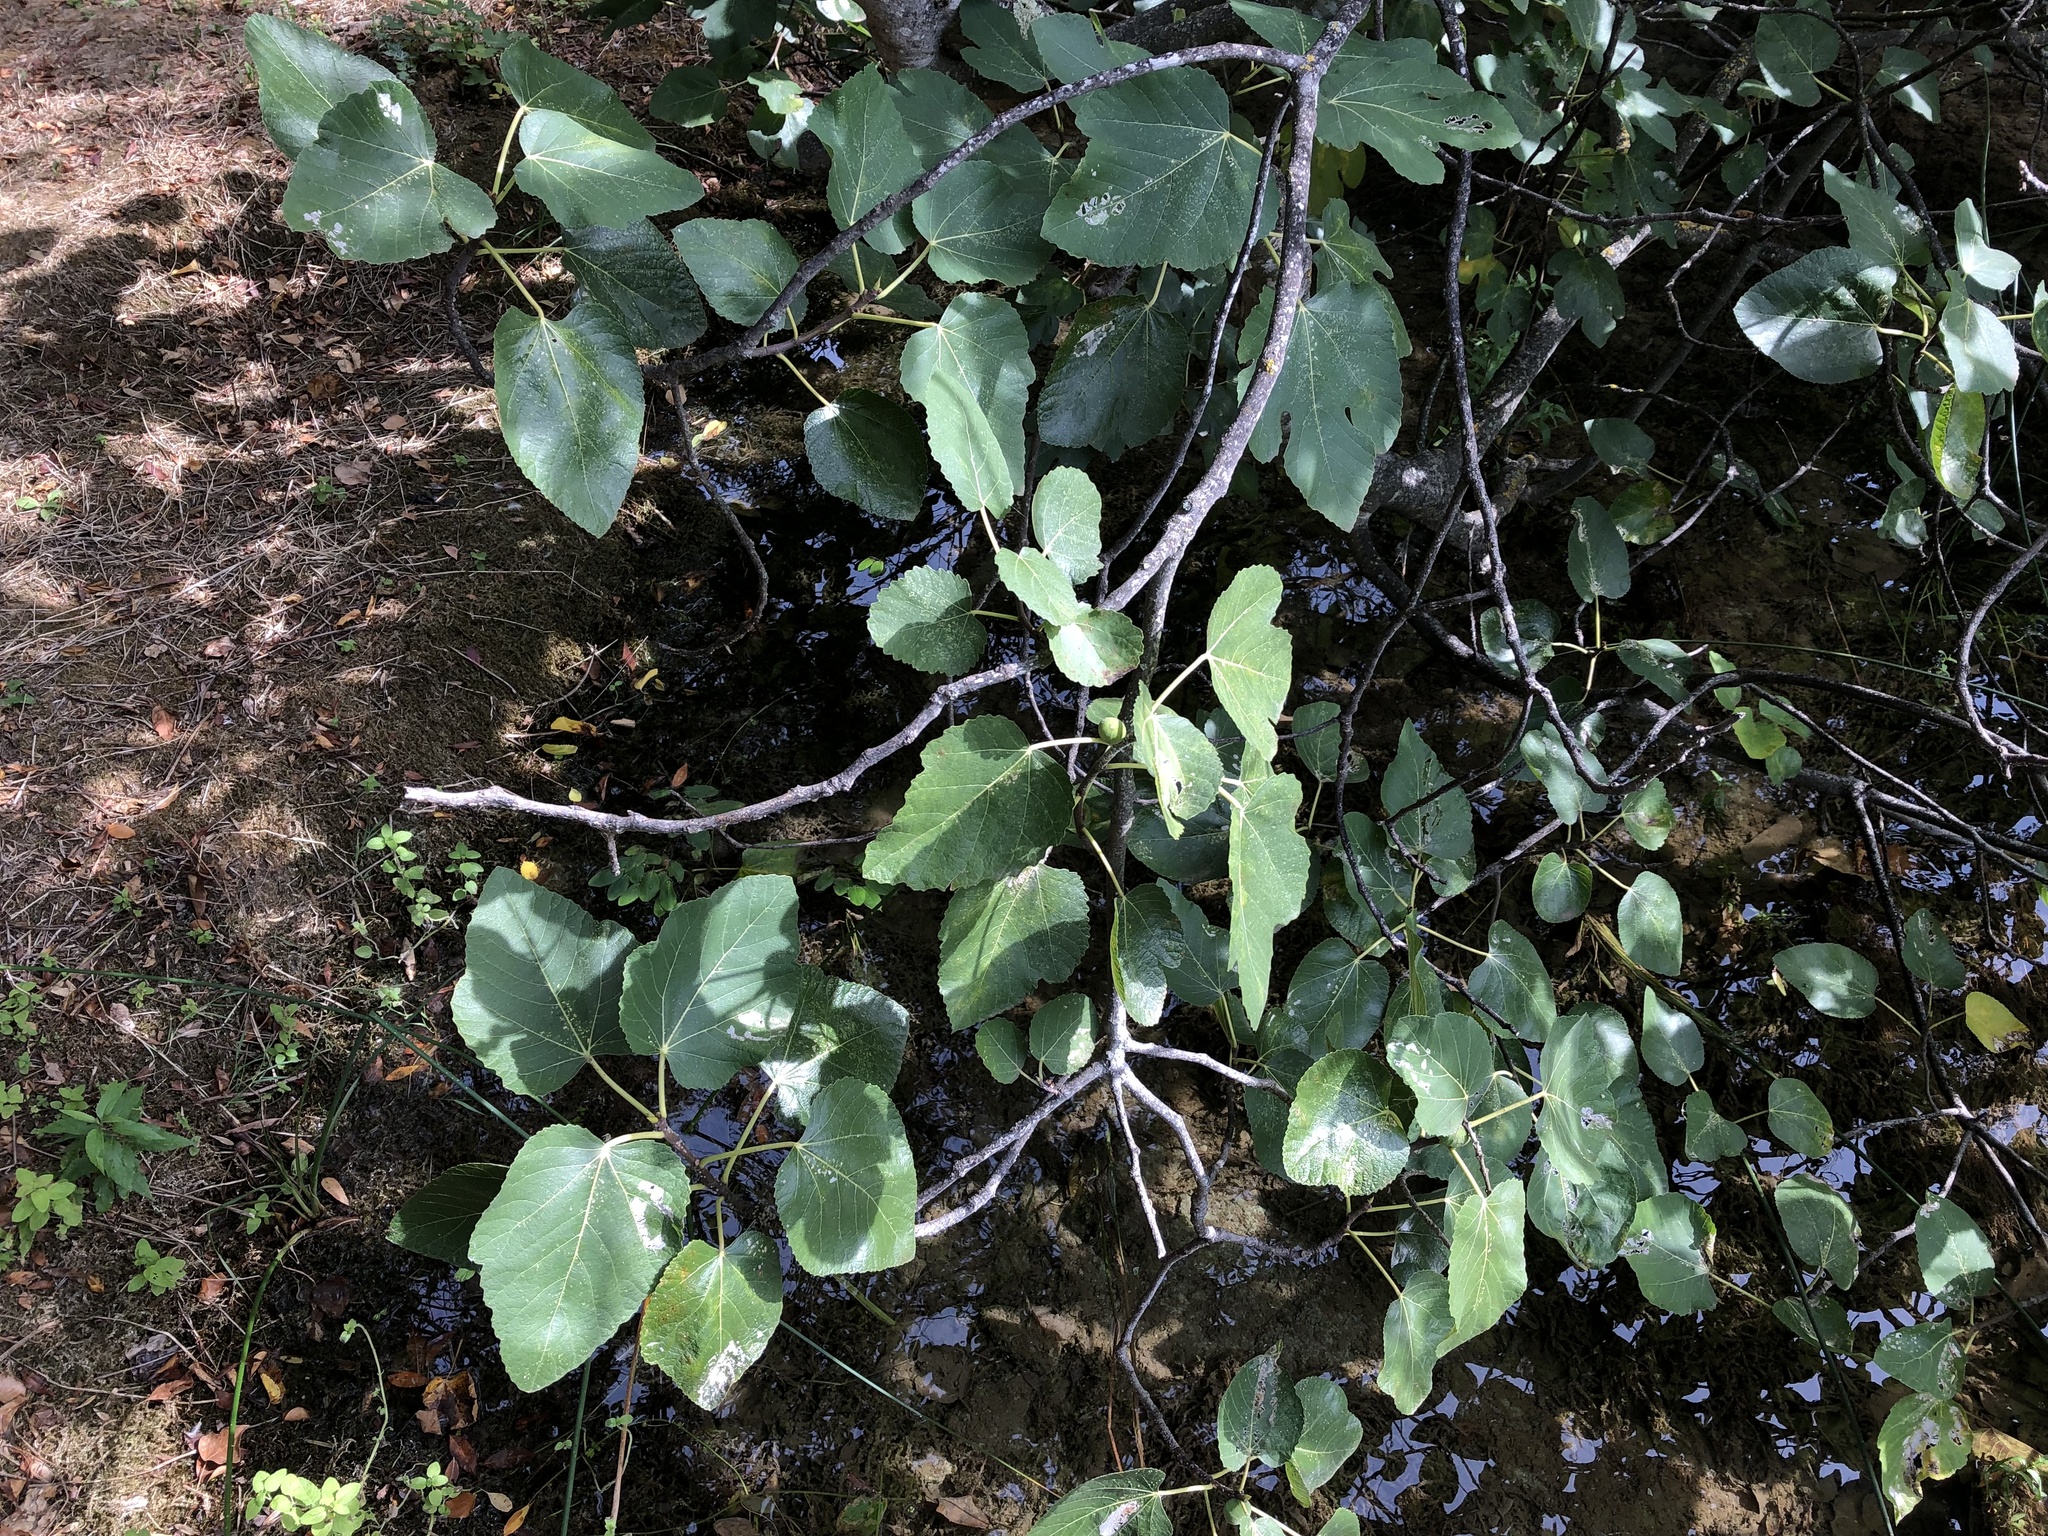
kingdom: Plantae
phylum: Tracheophyta
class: Magnoliopsida
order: Rosales
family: Moraceae
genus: Ficus
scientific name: Ficus carica
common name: Fig
